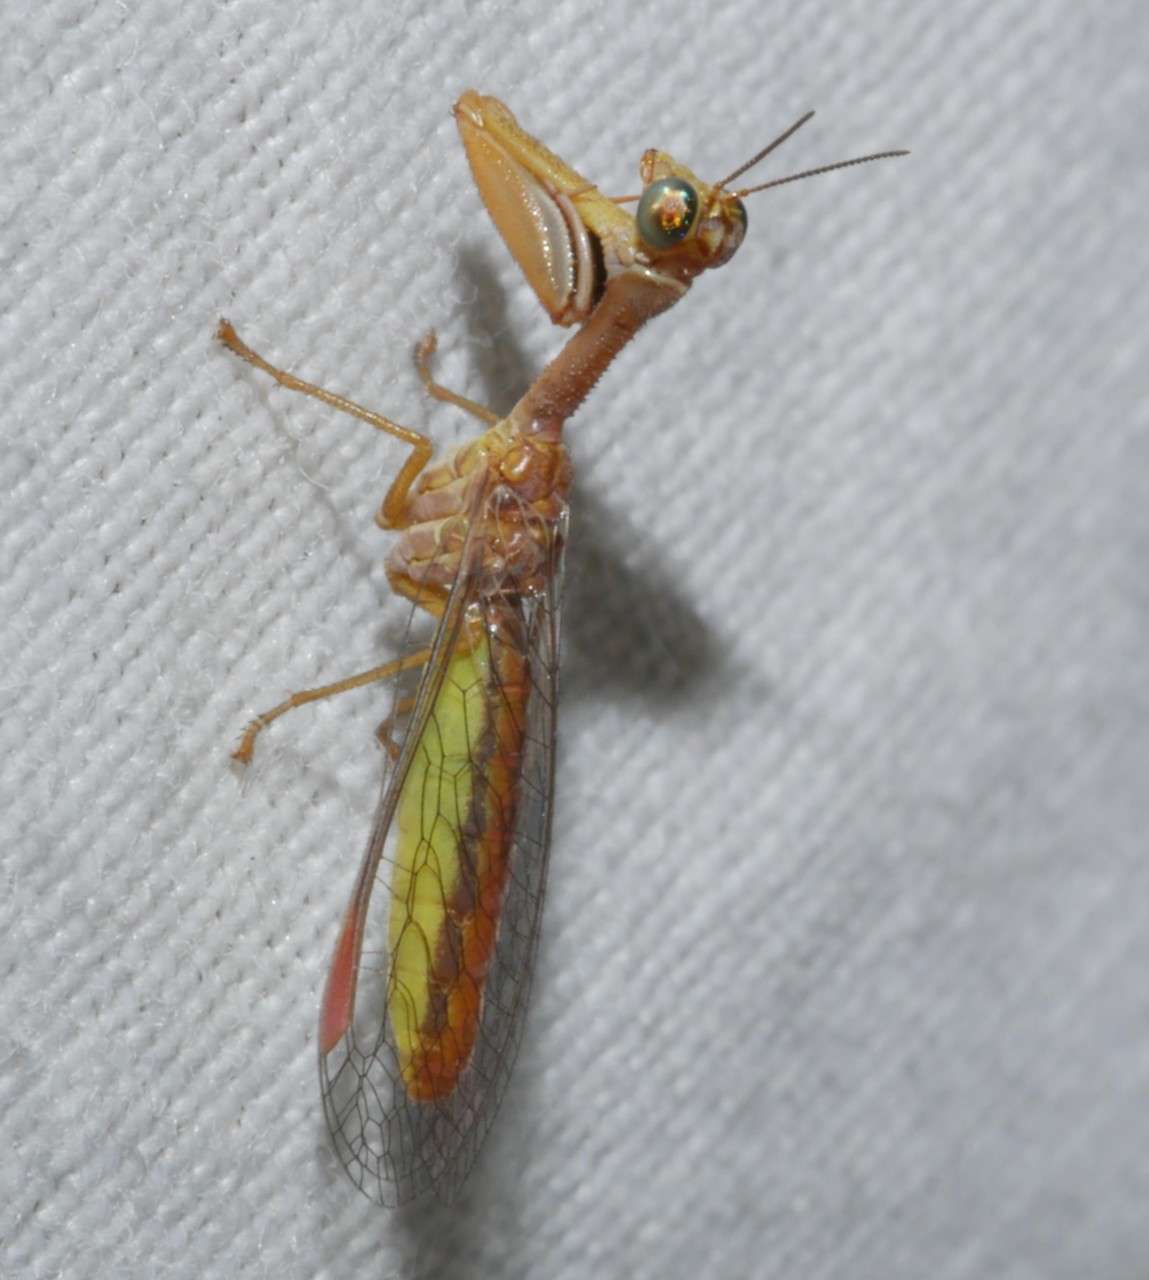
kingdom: Animalia
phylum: Arthropoda
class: Insecta
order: Neuroptera
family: Mantispidae
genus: Campion
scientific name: Campion tenuistriga
